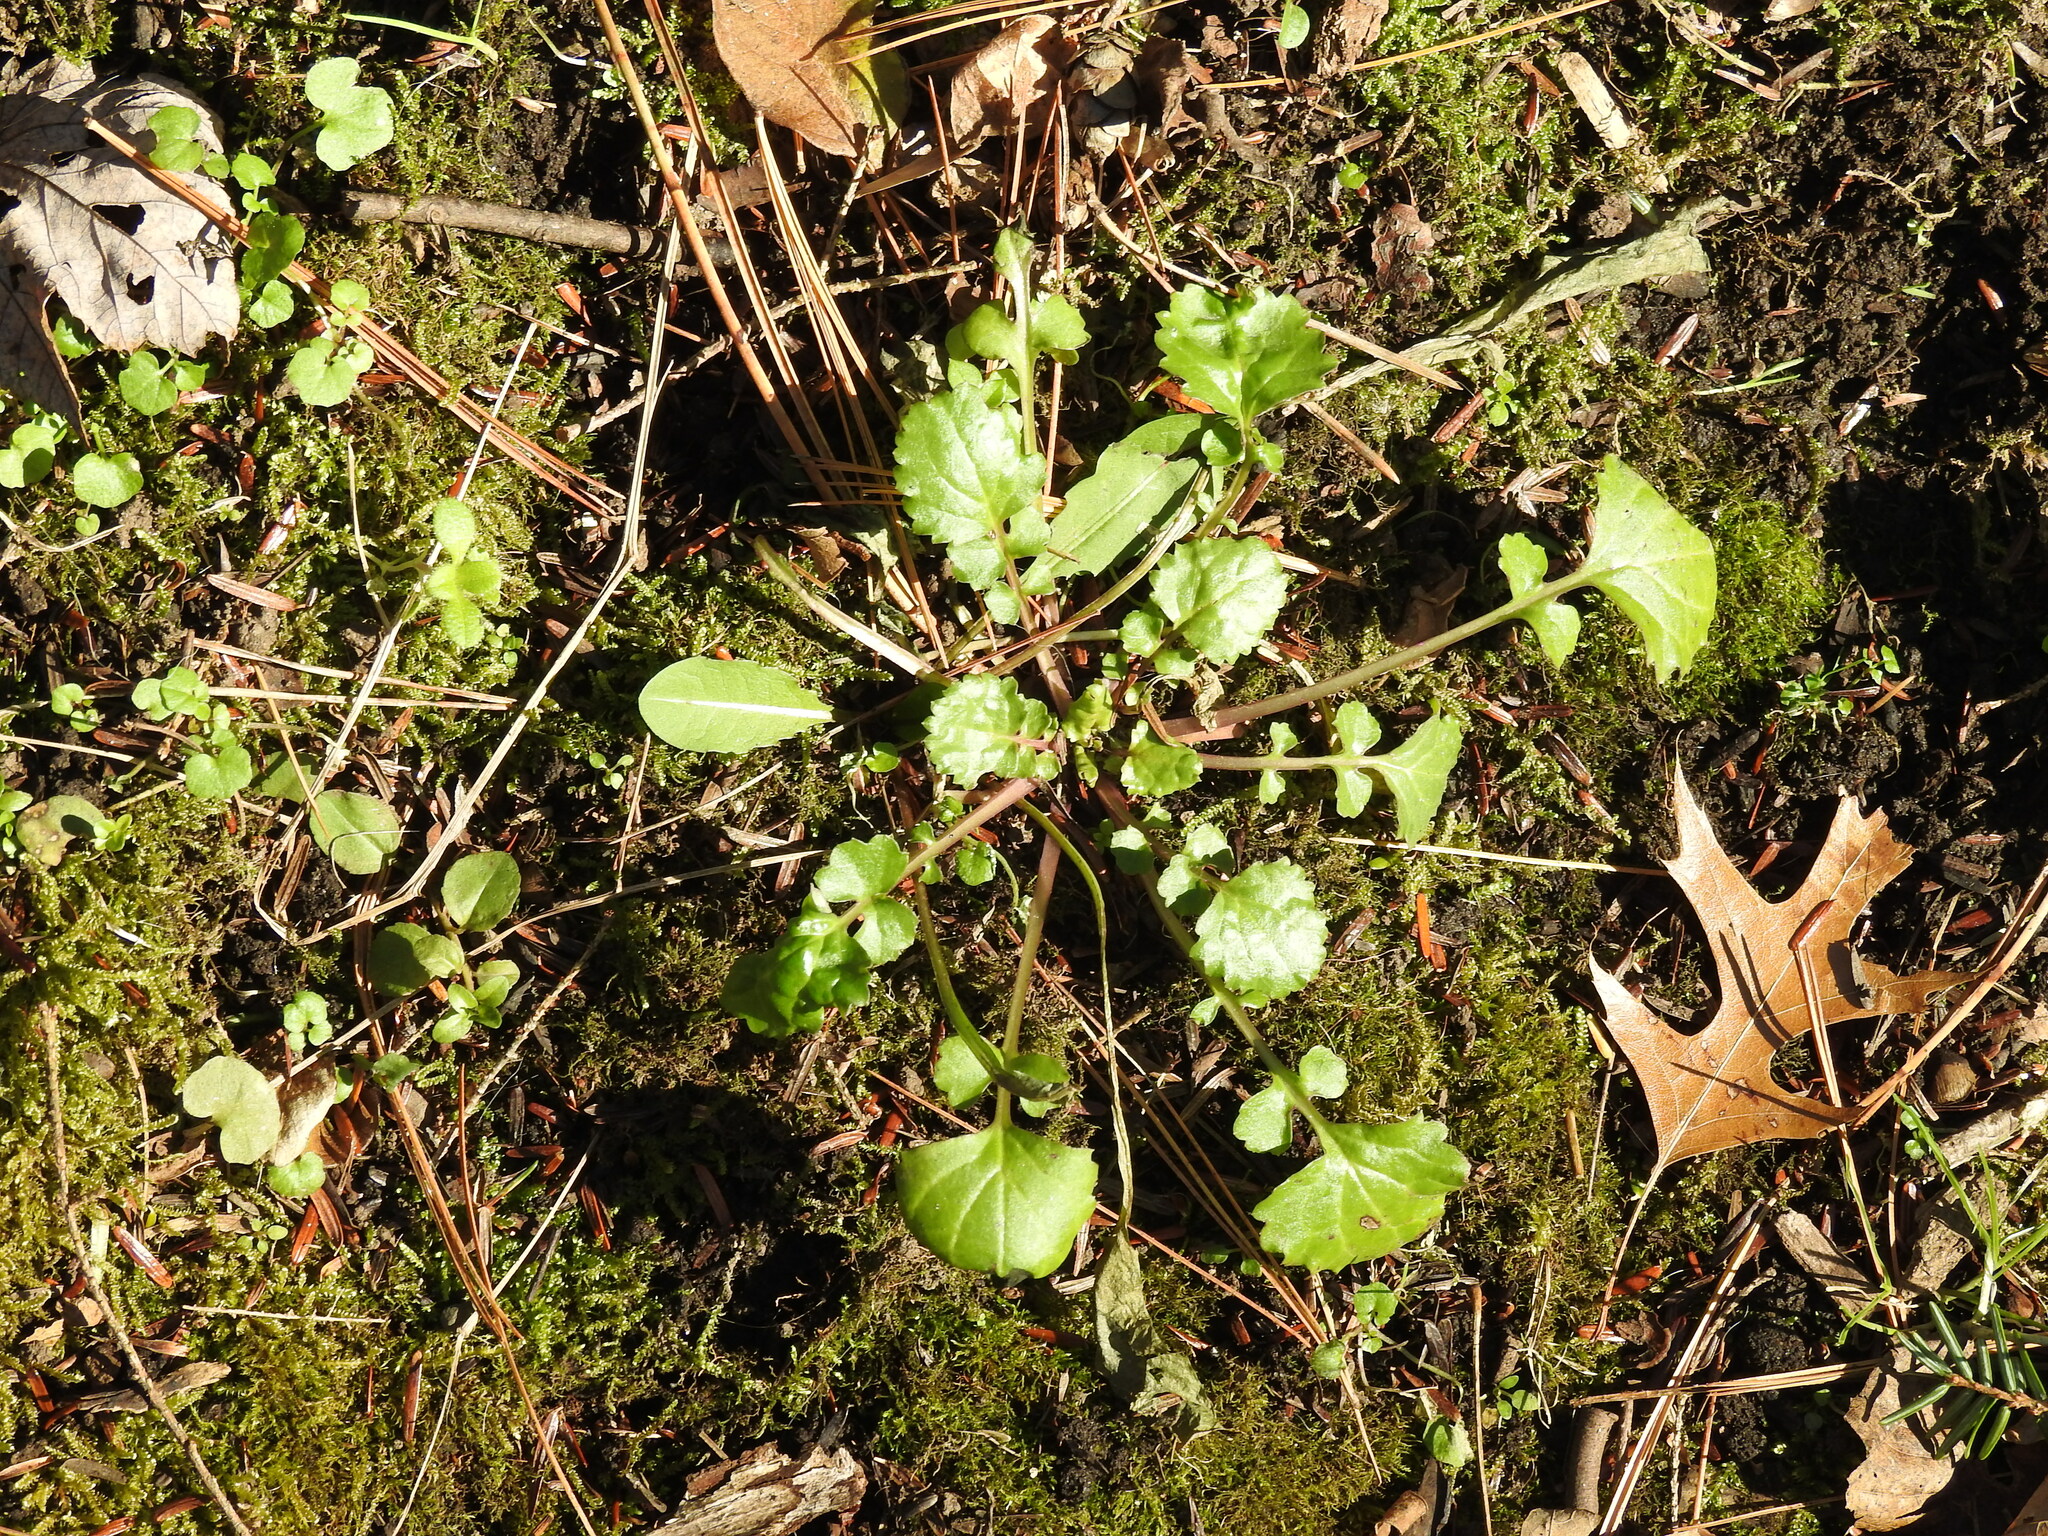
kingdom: Plantae
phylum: Tracheophyta
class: Magnoliopsida
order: Asterales
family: Asteraceae
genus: Packera
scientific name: Packera glabella
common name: Butterweed
